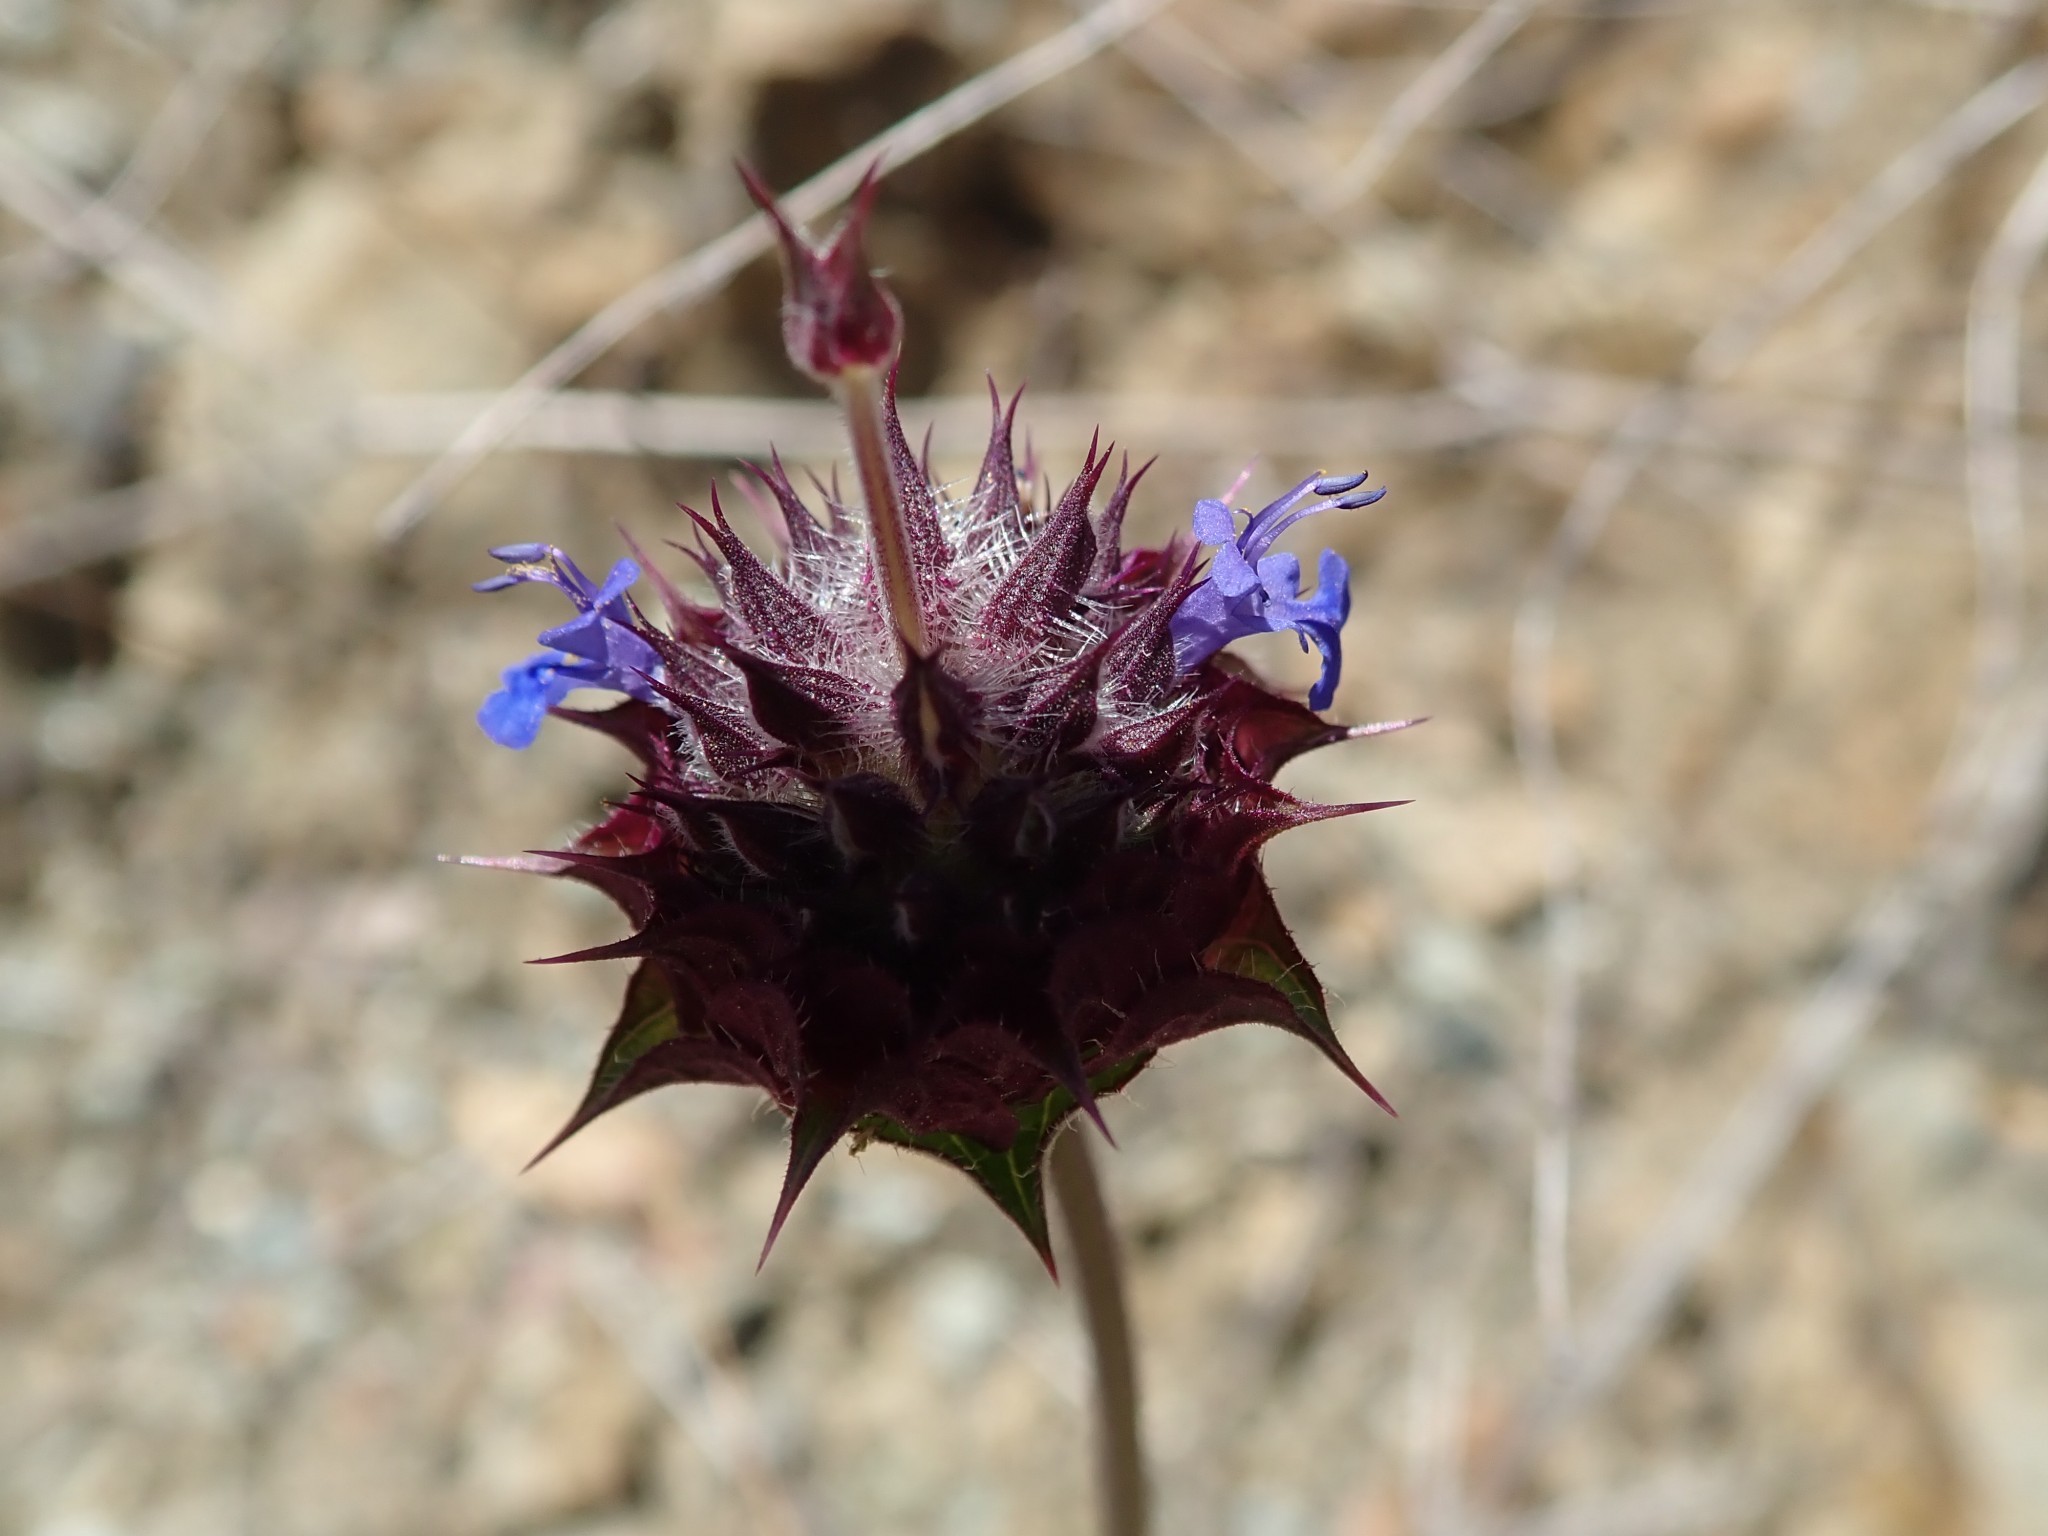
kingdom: Plantae
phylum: Tracheophyta
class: Magnoliopsida
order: Lamiales
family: Lamiaceae
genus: Salvia
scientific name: Salvia columbariae
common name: Chia
